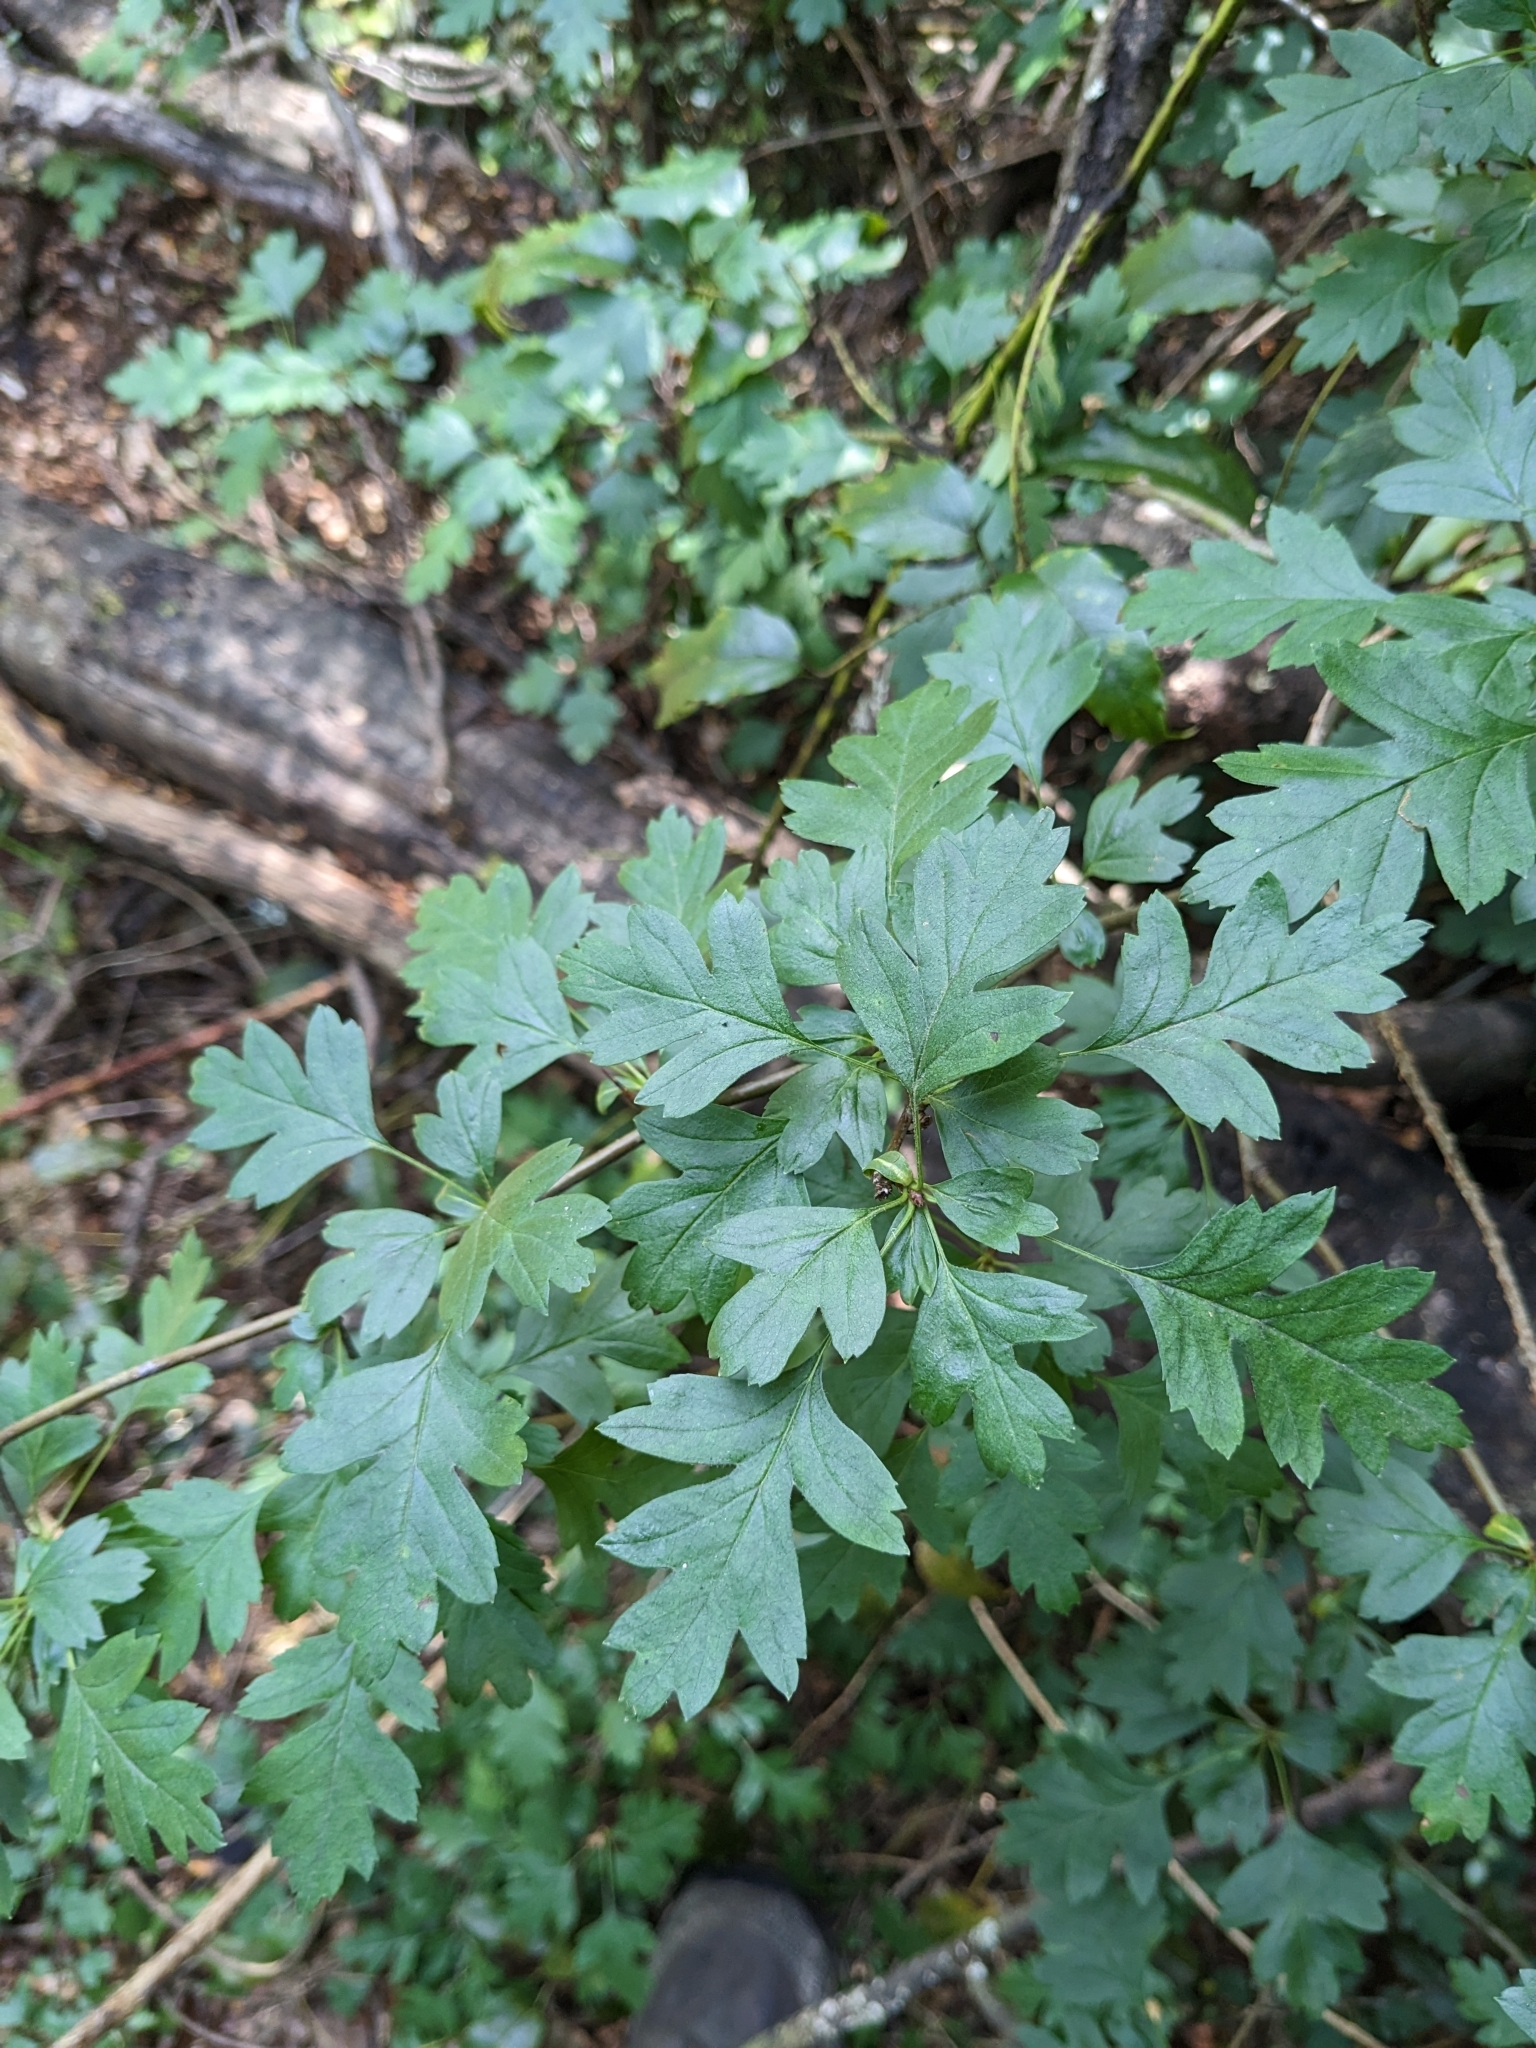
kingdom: Plantae
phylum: Tracheophyta
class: Magnoliopsida
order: Rosales
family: Rosaceae
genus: Crataegus
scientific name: Crataegus monogyna
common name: Hawthorn
